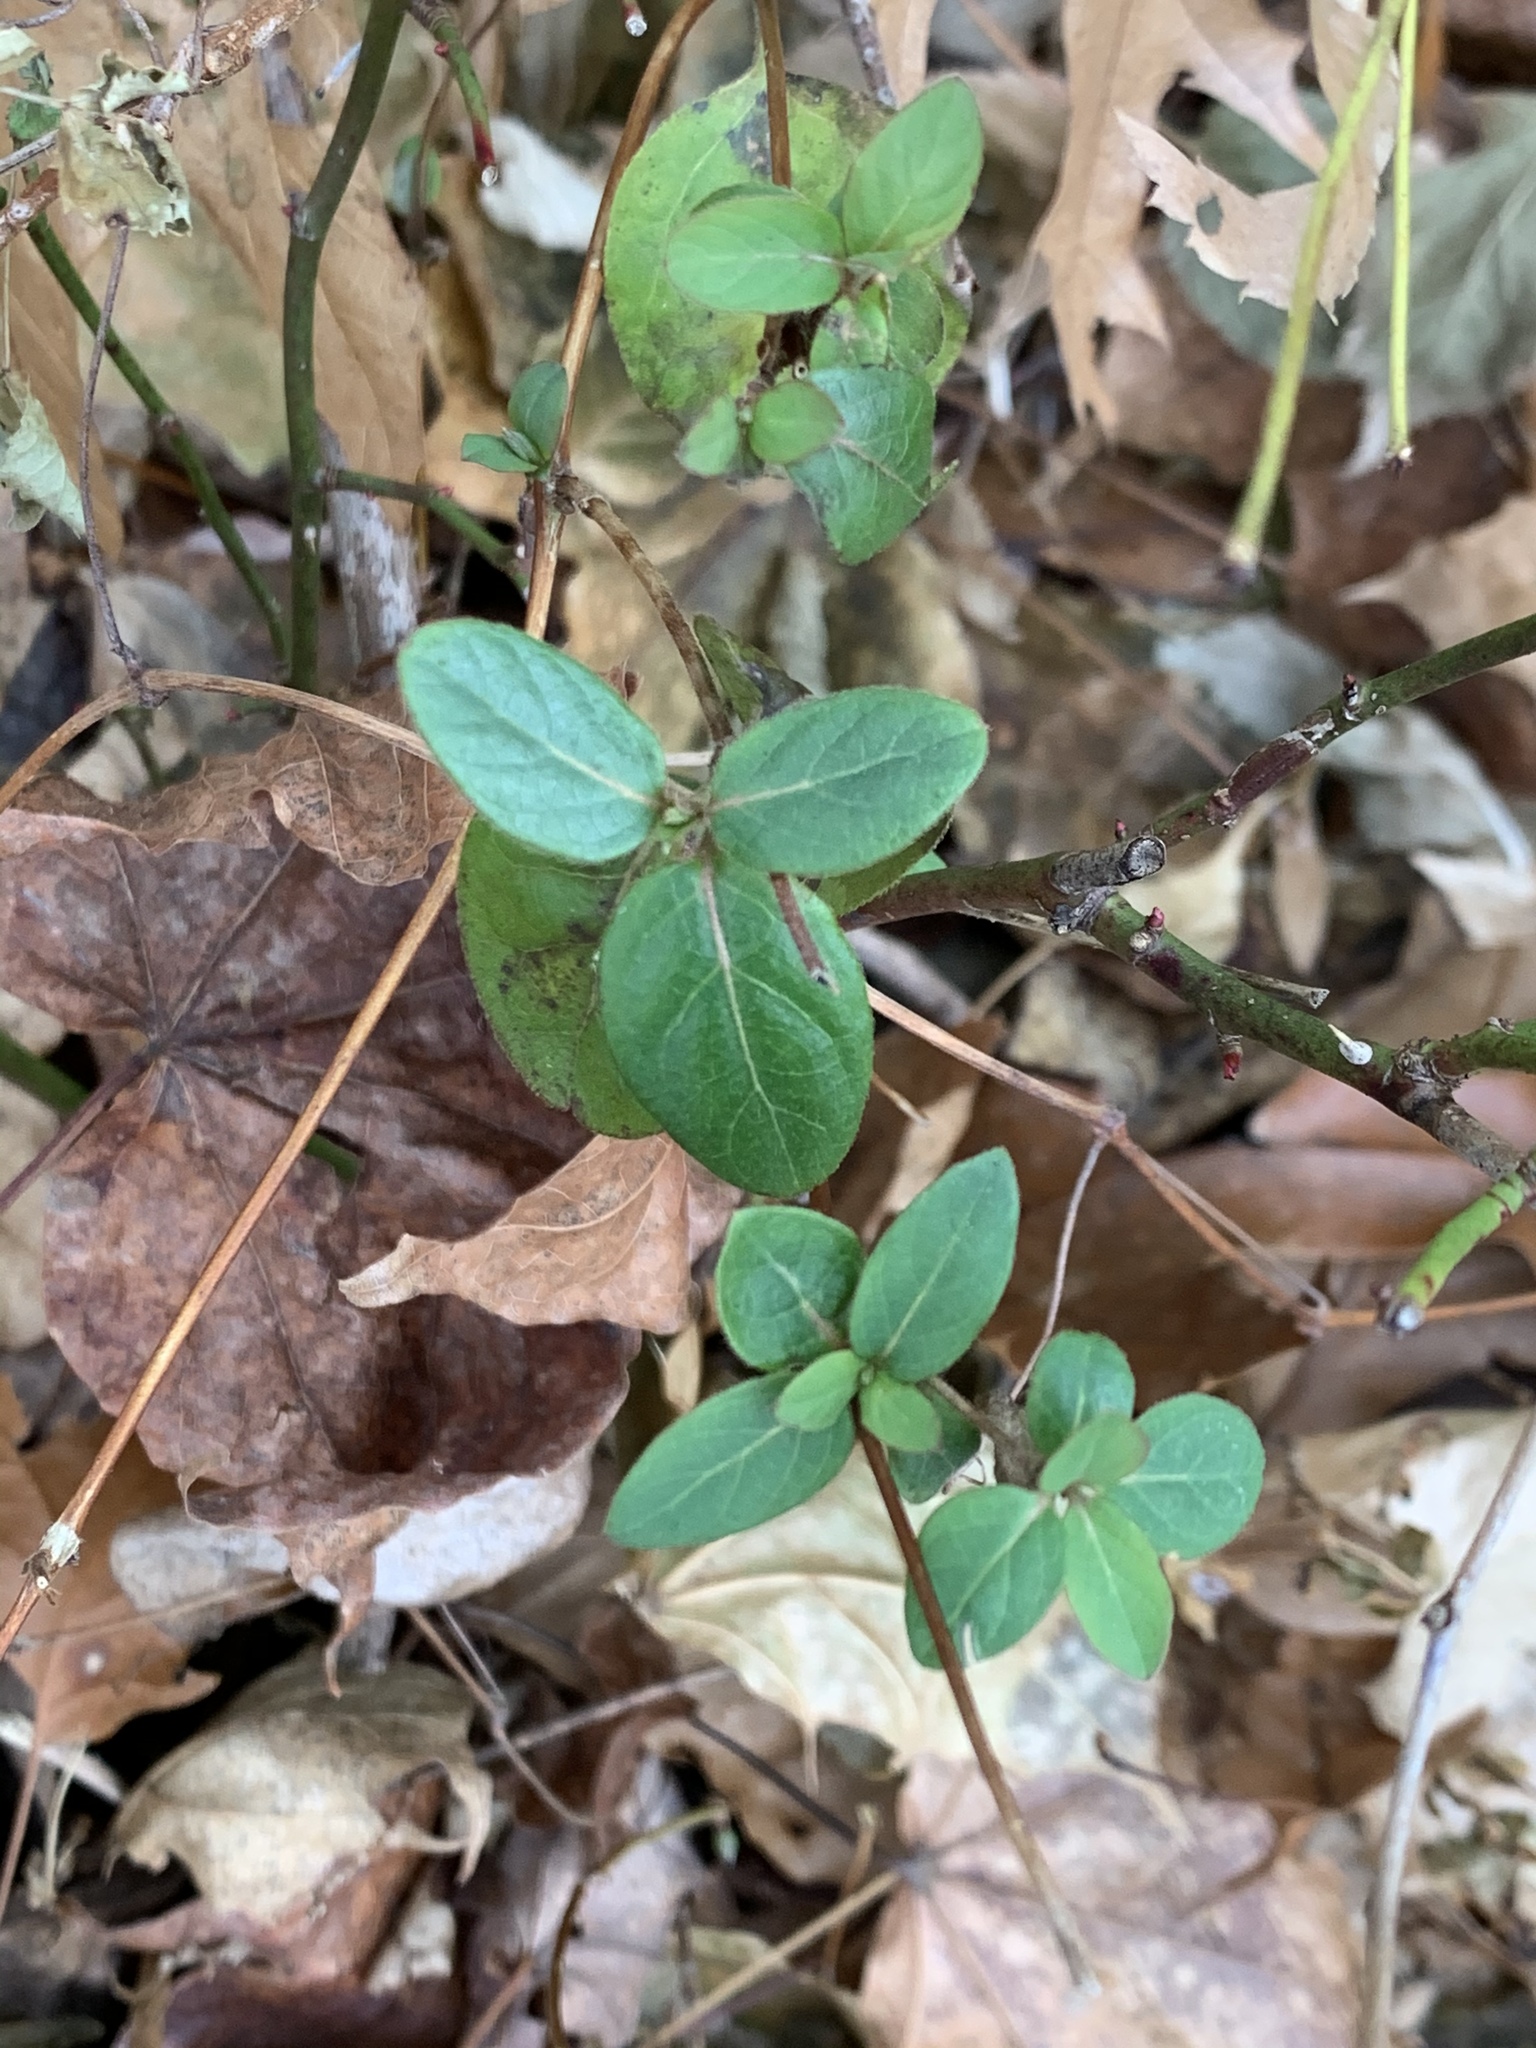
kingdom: Plantae
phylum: Tracheophyta
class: Magnoliopsida
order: Dipsacales
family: Caprifoliaceae
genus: Lonicera
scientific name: Lonicera japonica
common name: Japanese honeysuckle
